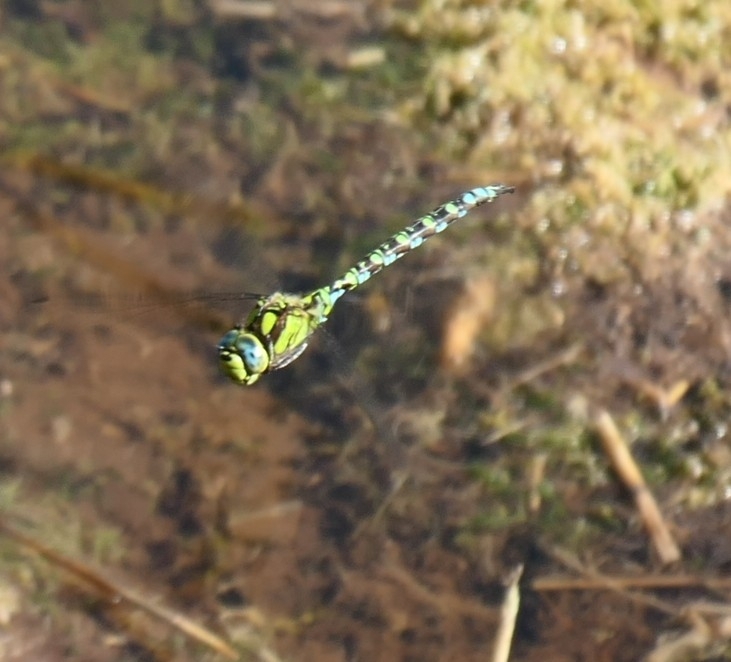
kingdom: Animalia
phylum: Arthropoda
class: Insecta
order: Odonata
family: Aeshnidae
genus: Aeshna
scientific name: Aeshna cyanea
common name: Southern hawker
